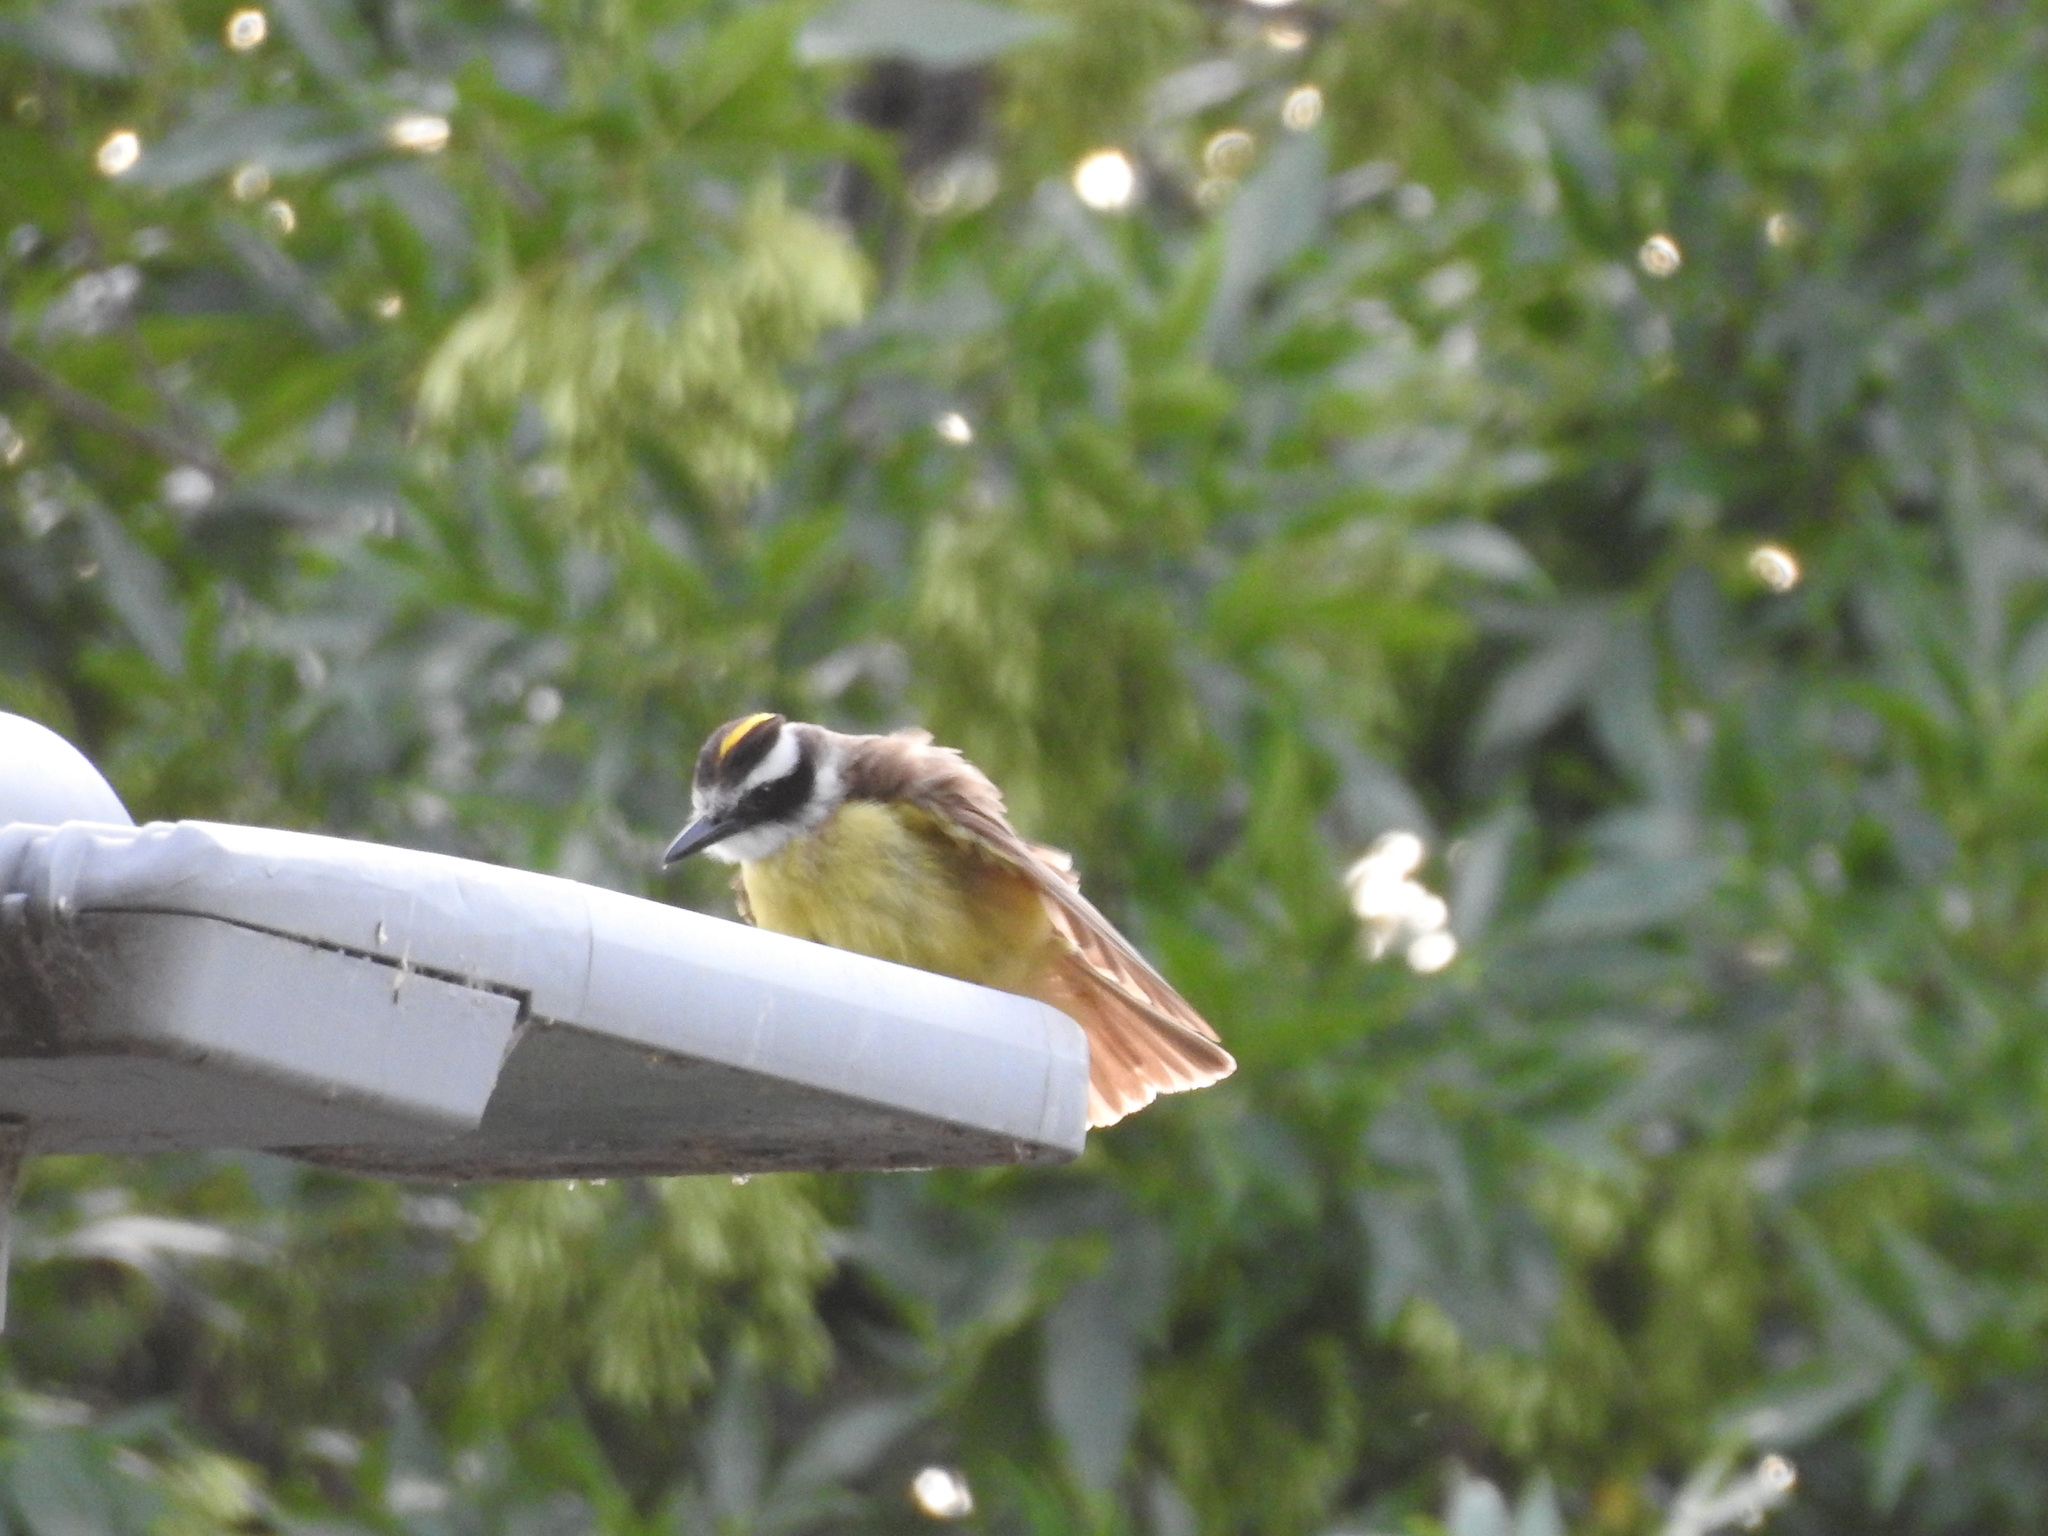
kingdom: Animalia
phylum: Chordata
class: Aves
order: Passeriformes
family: Tyrannidae
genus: Pitangus
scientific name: Pitangus sulphuratus
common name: Great kiskadee
